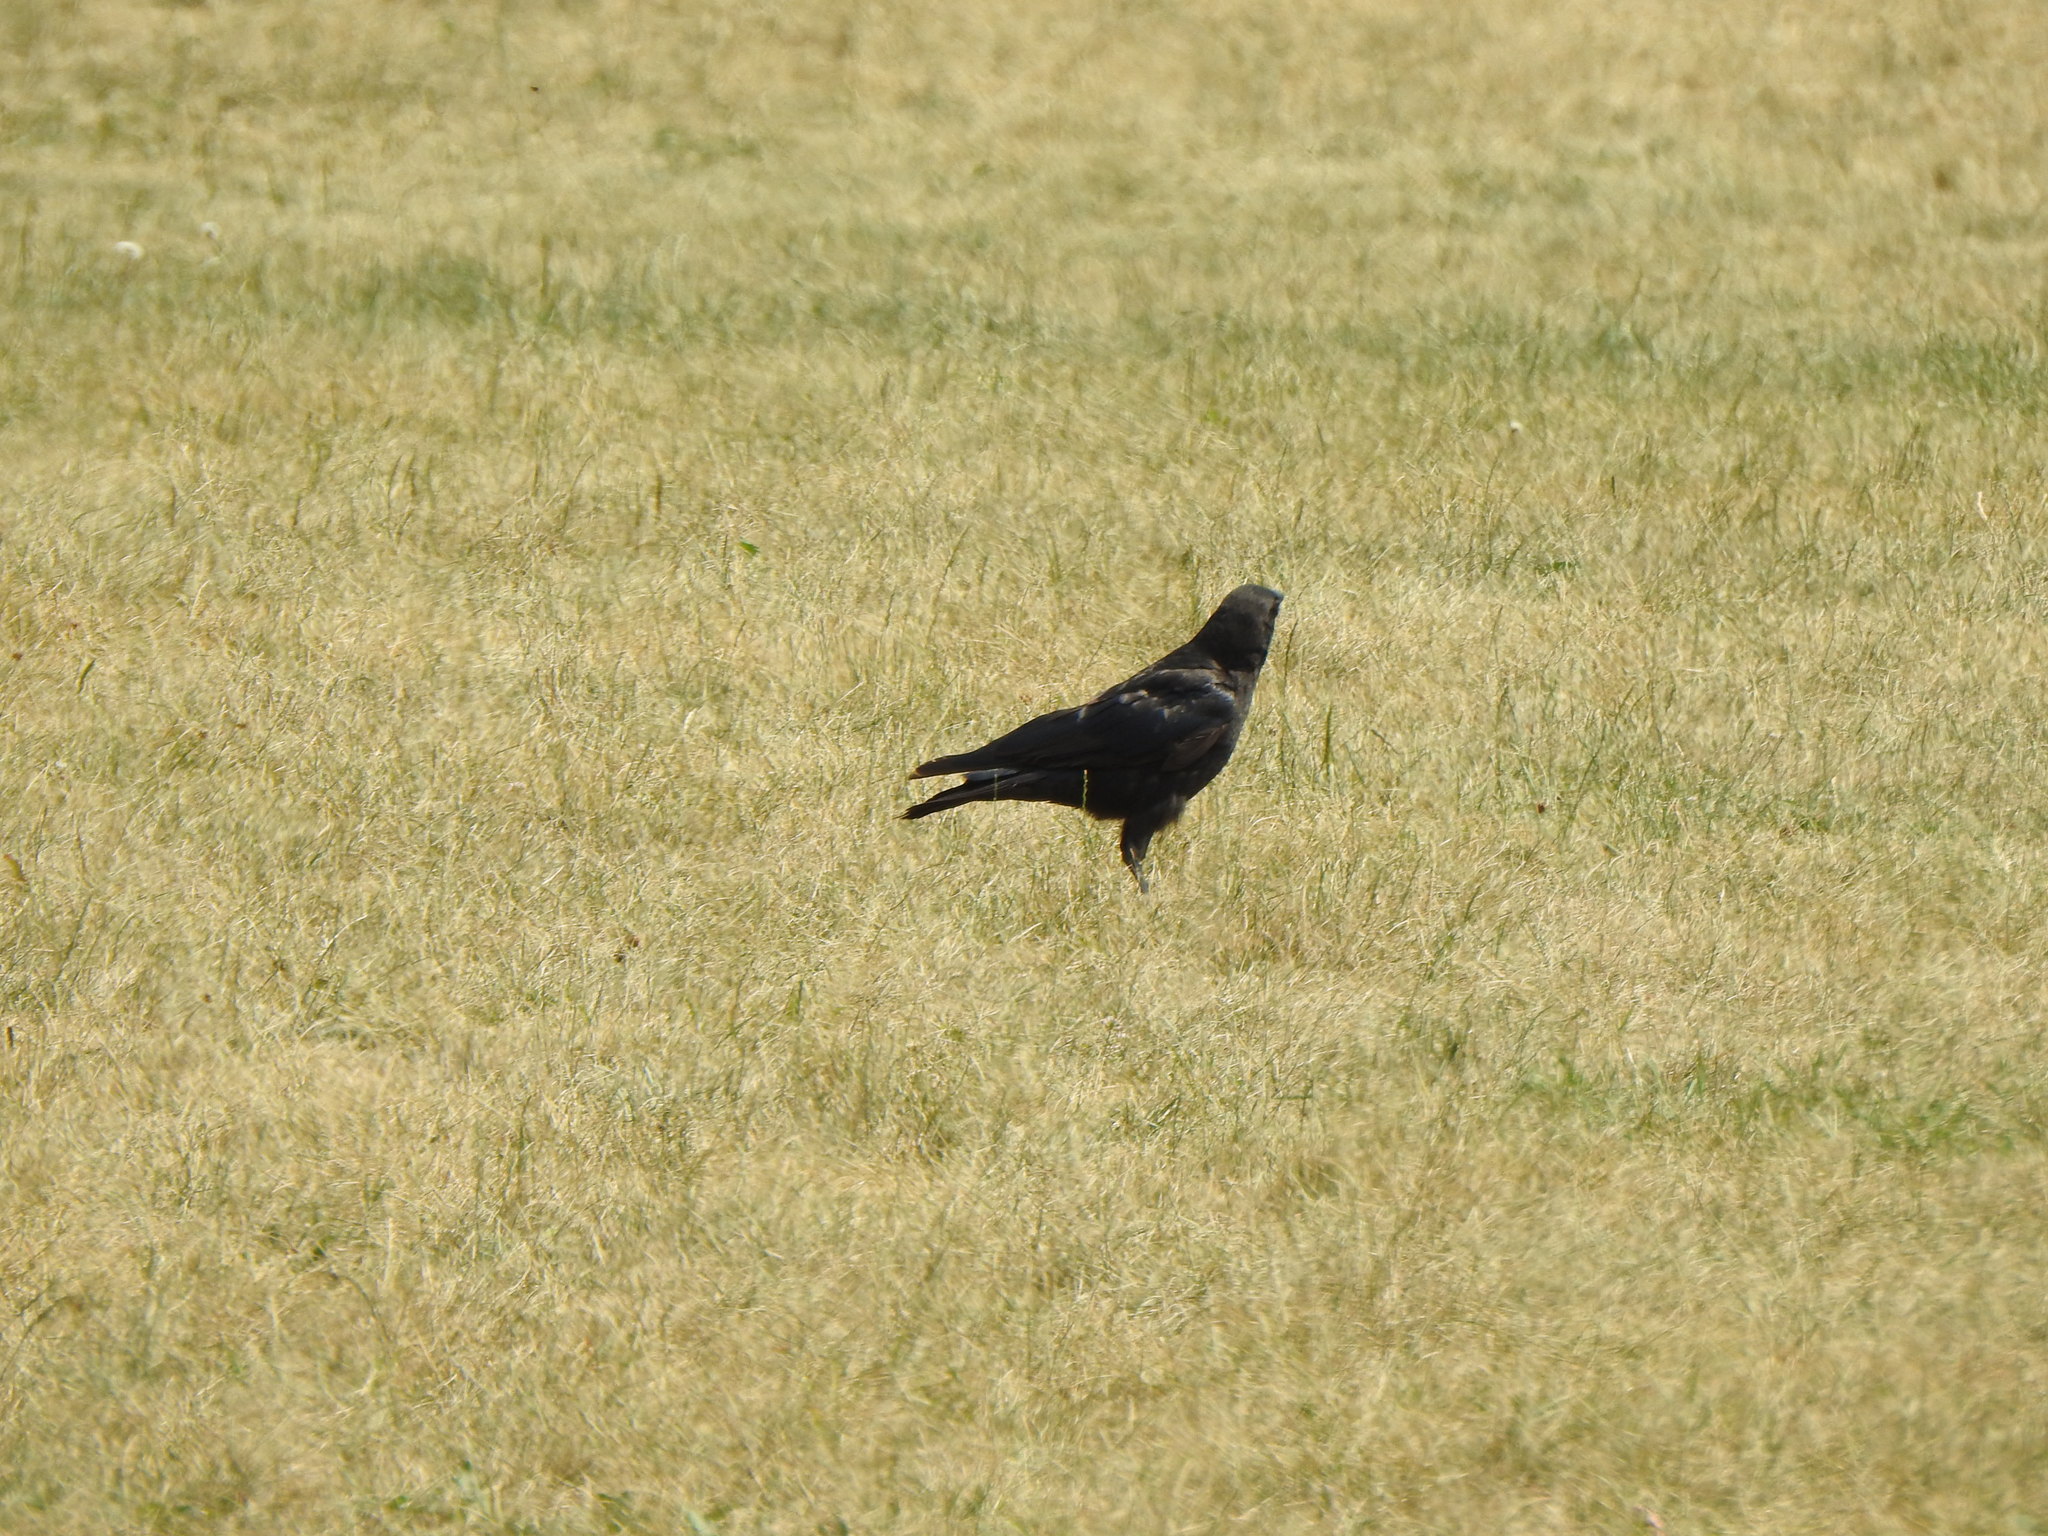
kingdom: Animalia
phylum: Chordata
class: Aves
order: Passeriformes
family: Corvidae
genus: Corvus
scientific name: Corvus brachyrhynchos
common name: American crow
